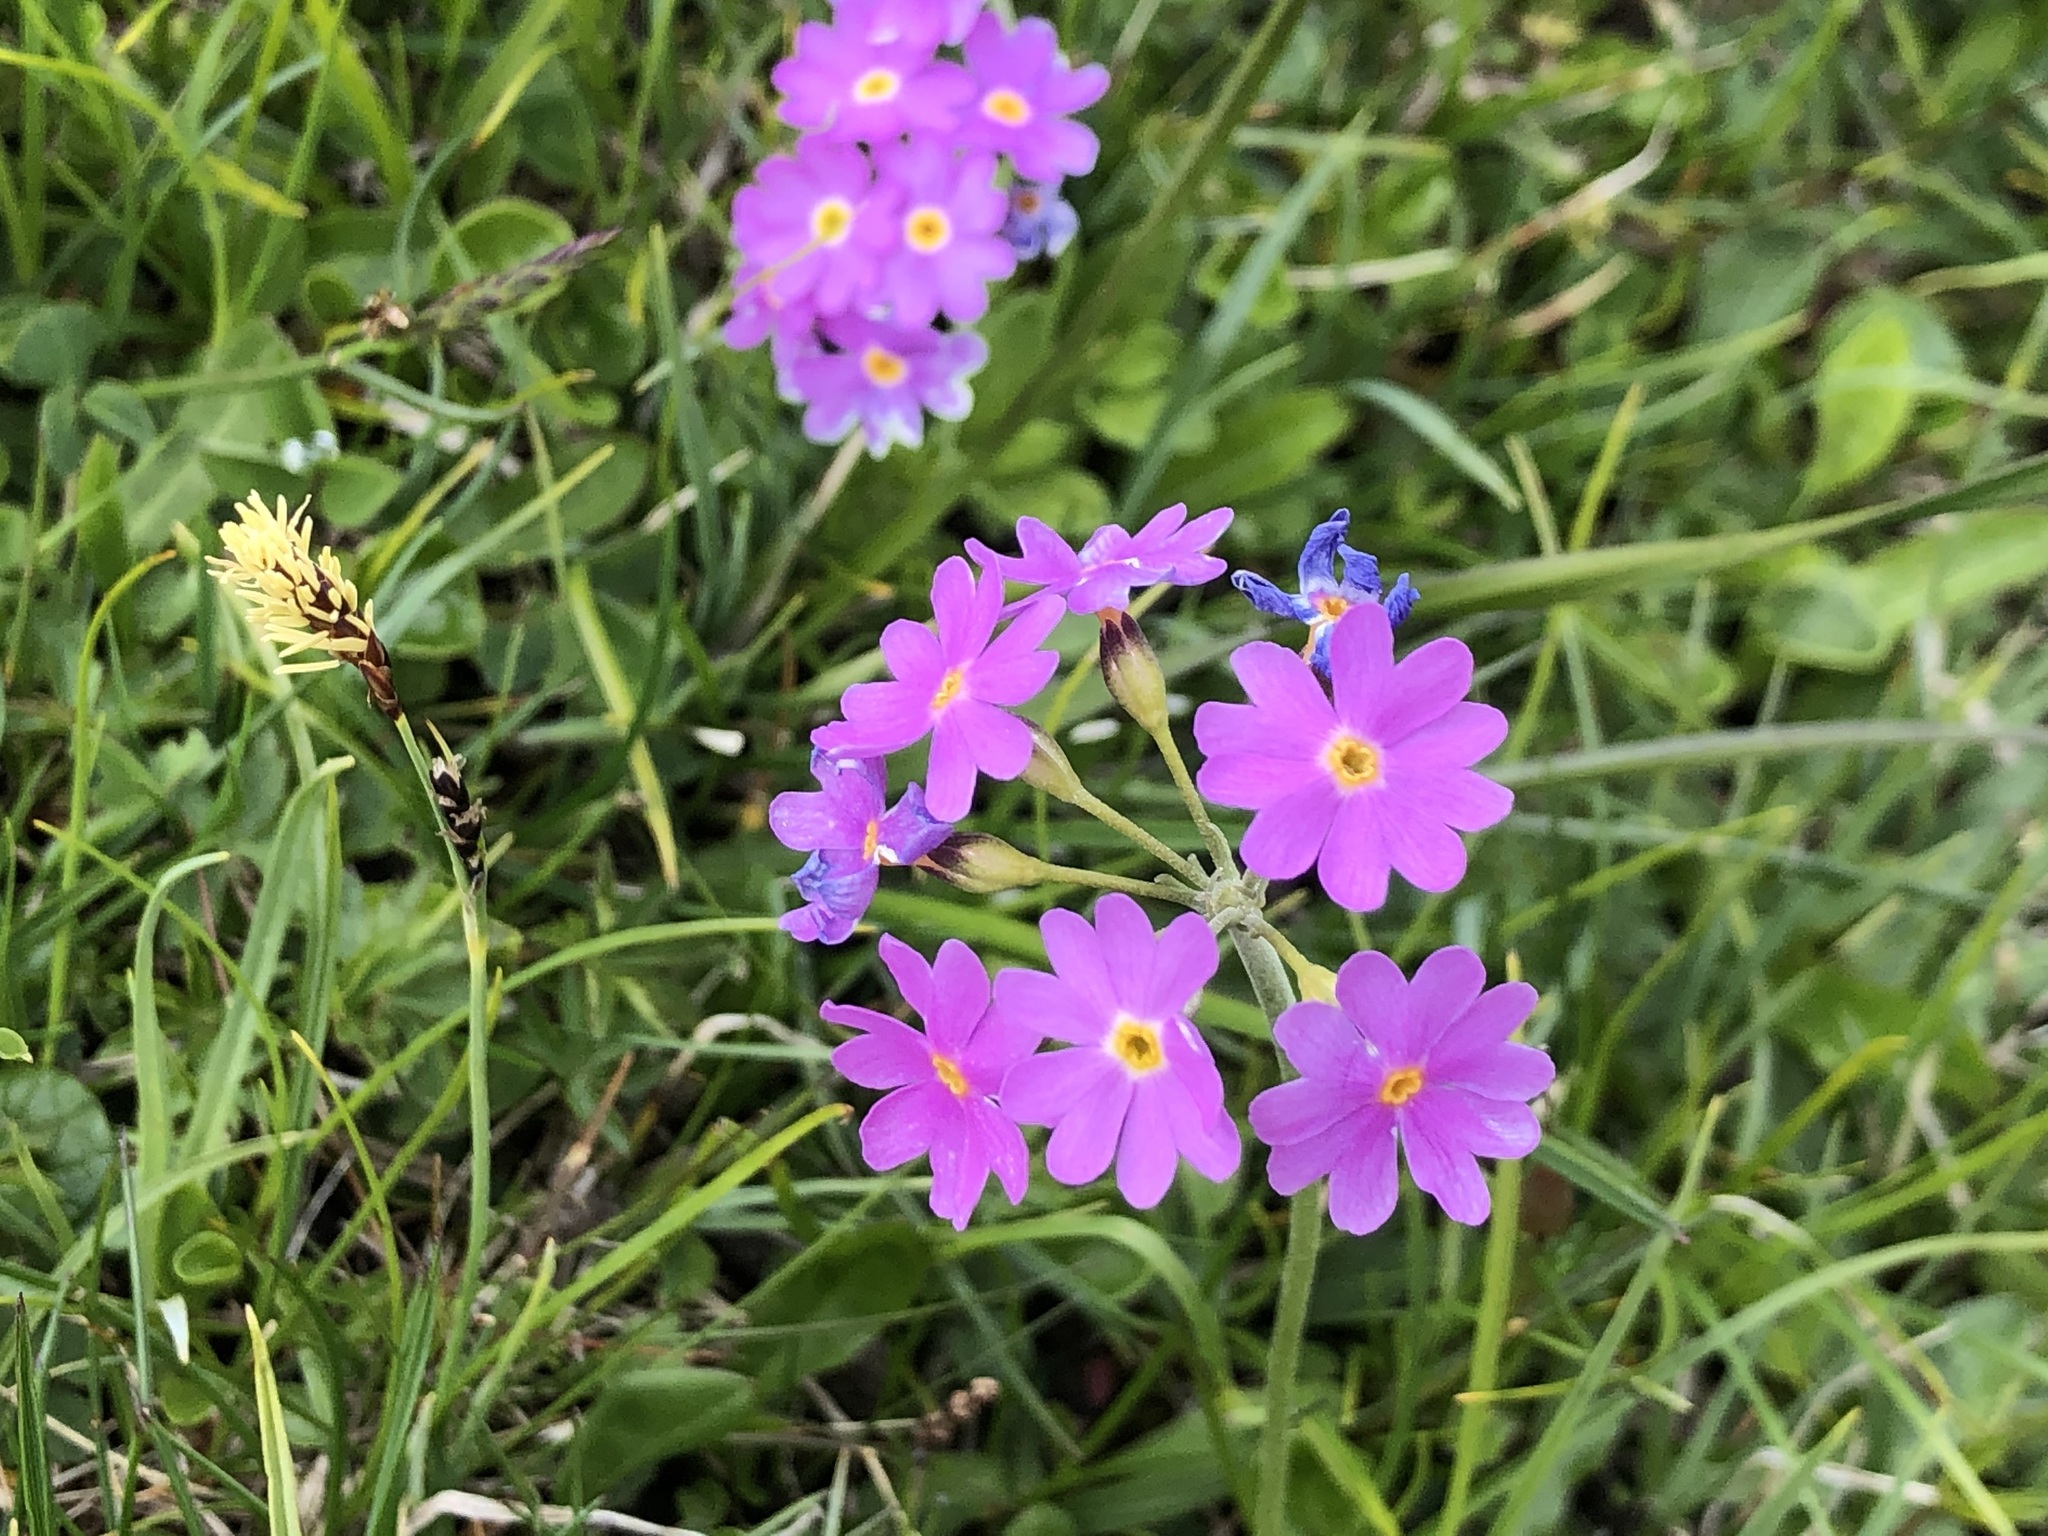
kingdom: Plantae
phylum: Tracheophyta
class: Magnoliopsida
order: Ericales
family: Primulaceae
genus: Primula
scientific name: Primula farinosa
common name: Bird's-eye primrose
